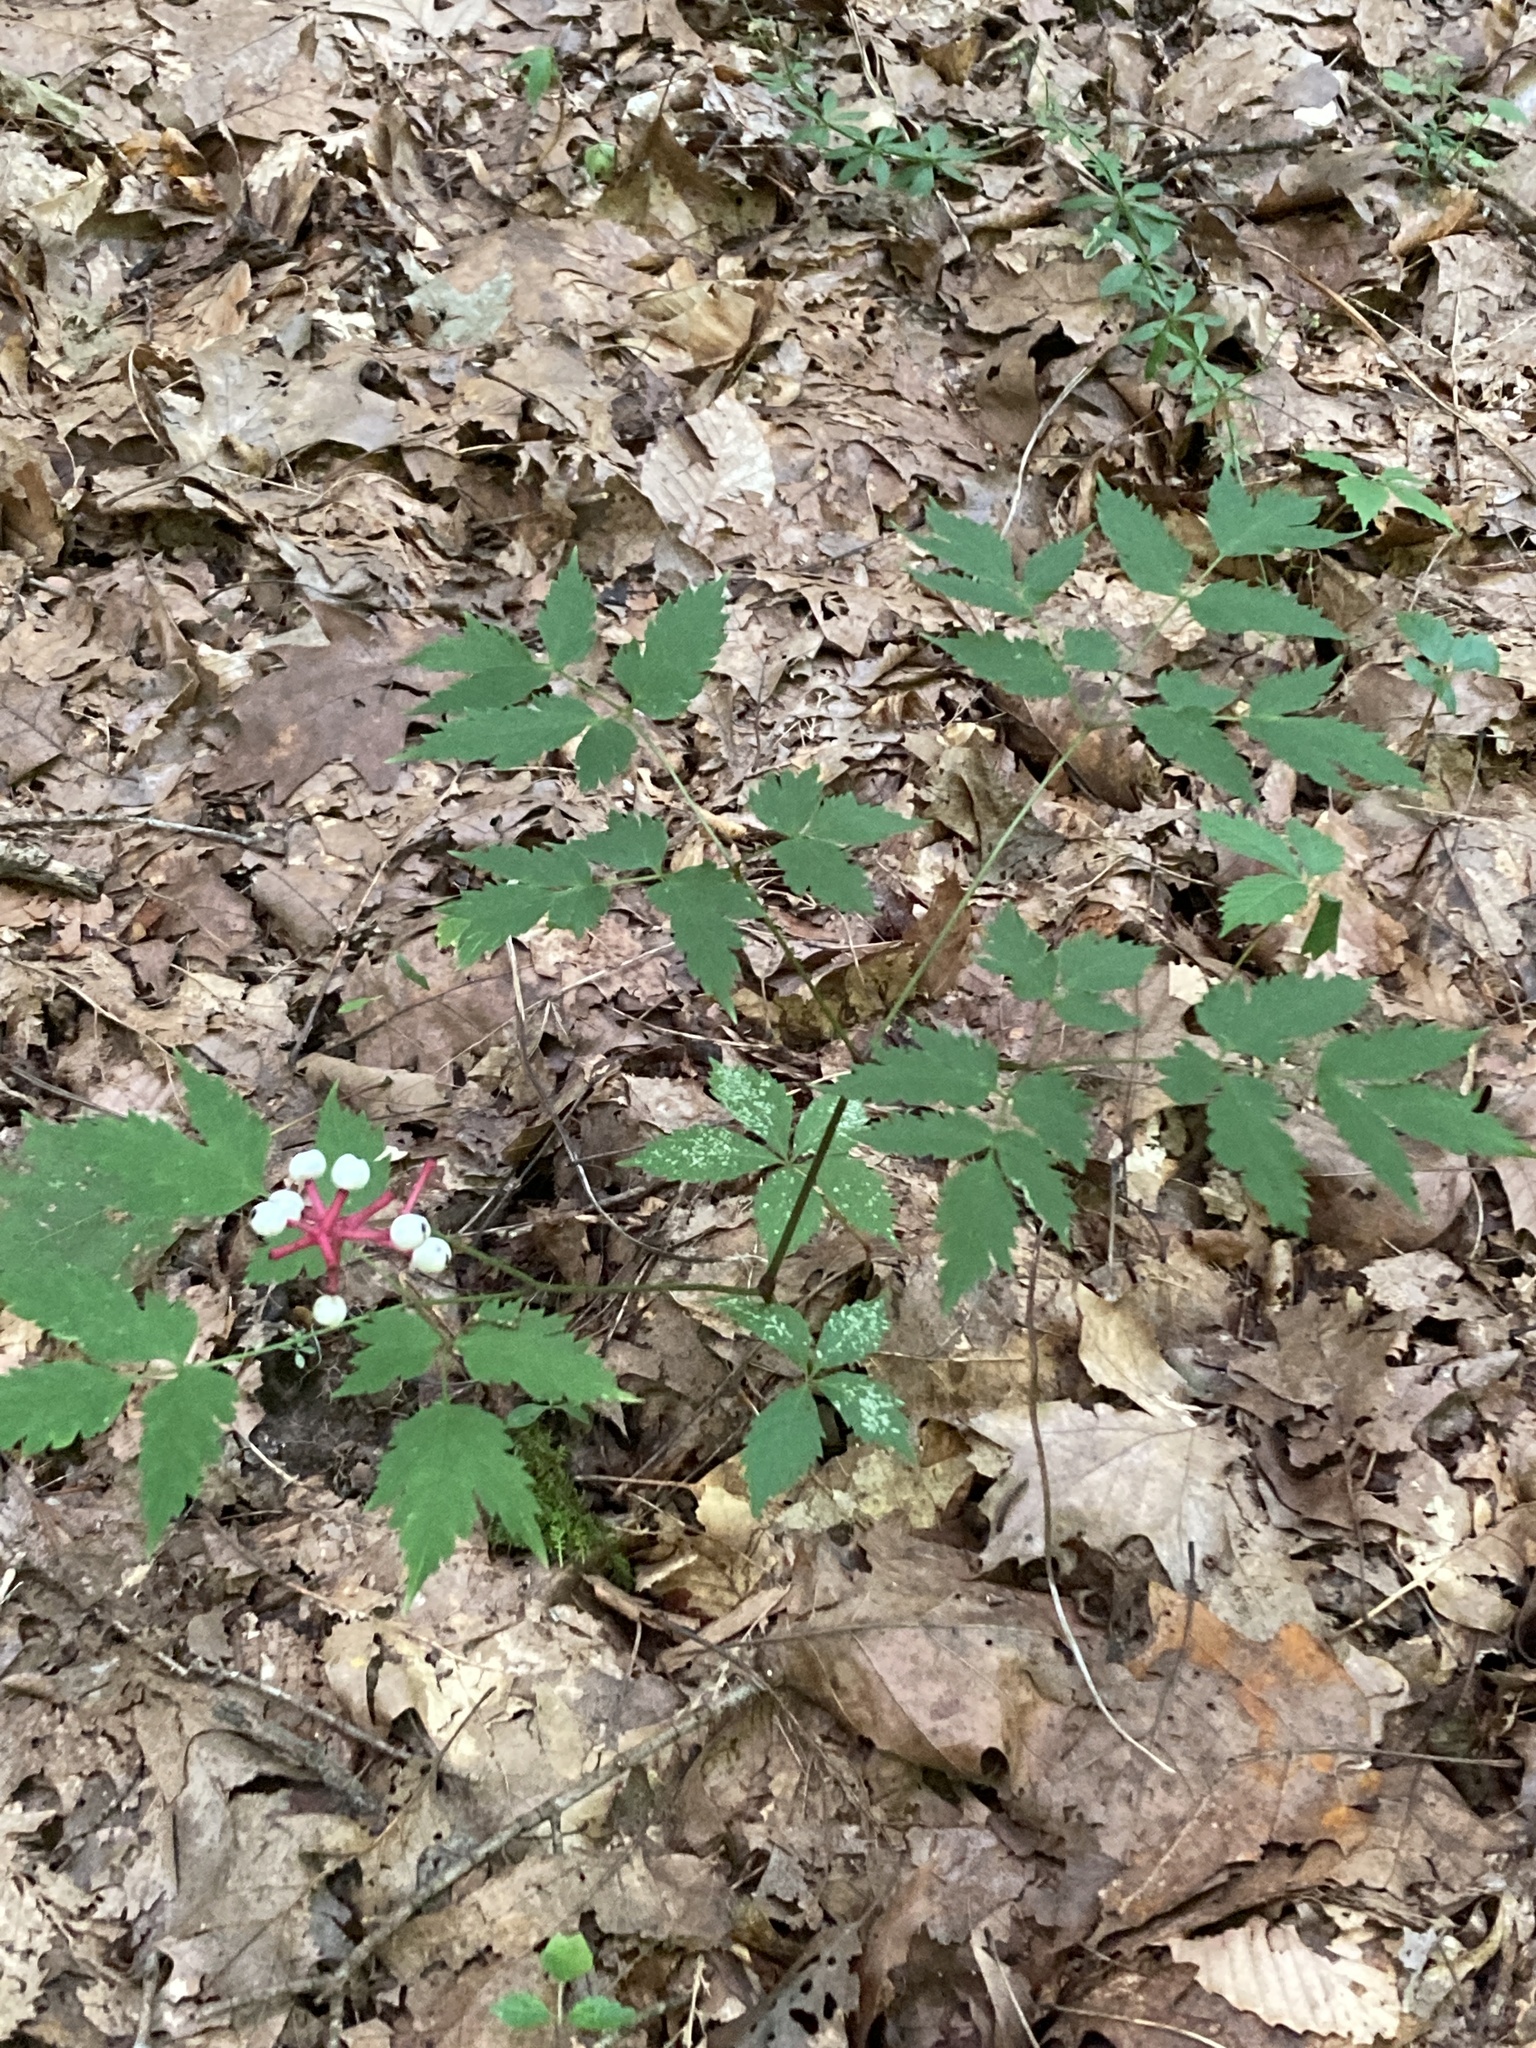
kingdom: Plantae
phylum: Tracheophyta
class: Magnoliopsida
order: Ranunculales
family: Ranunculaceae
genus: Actaea
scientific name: Actaea pachypoda
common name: Doll's-eyes
